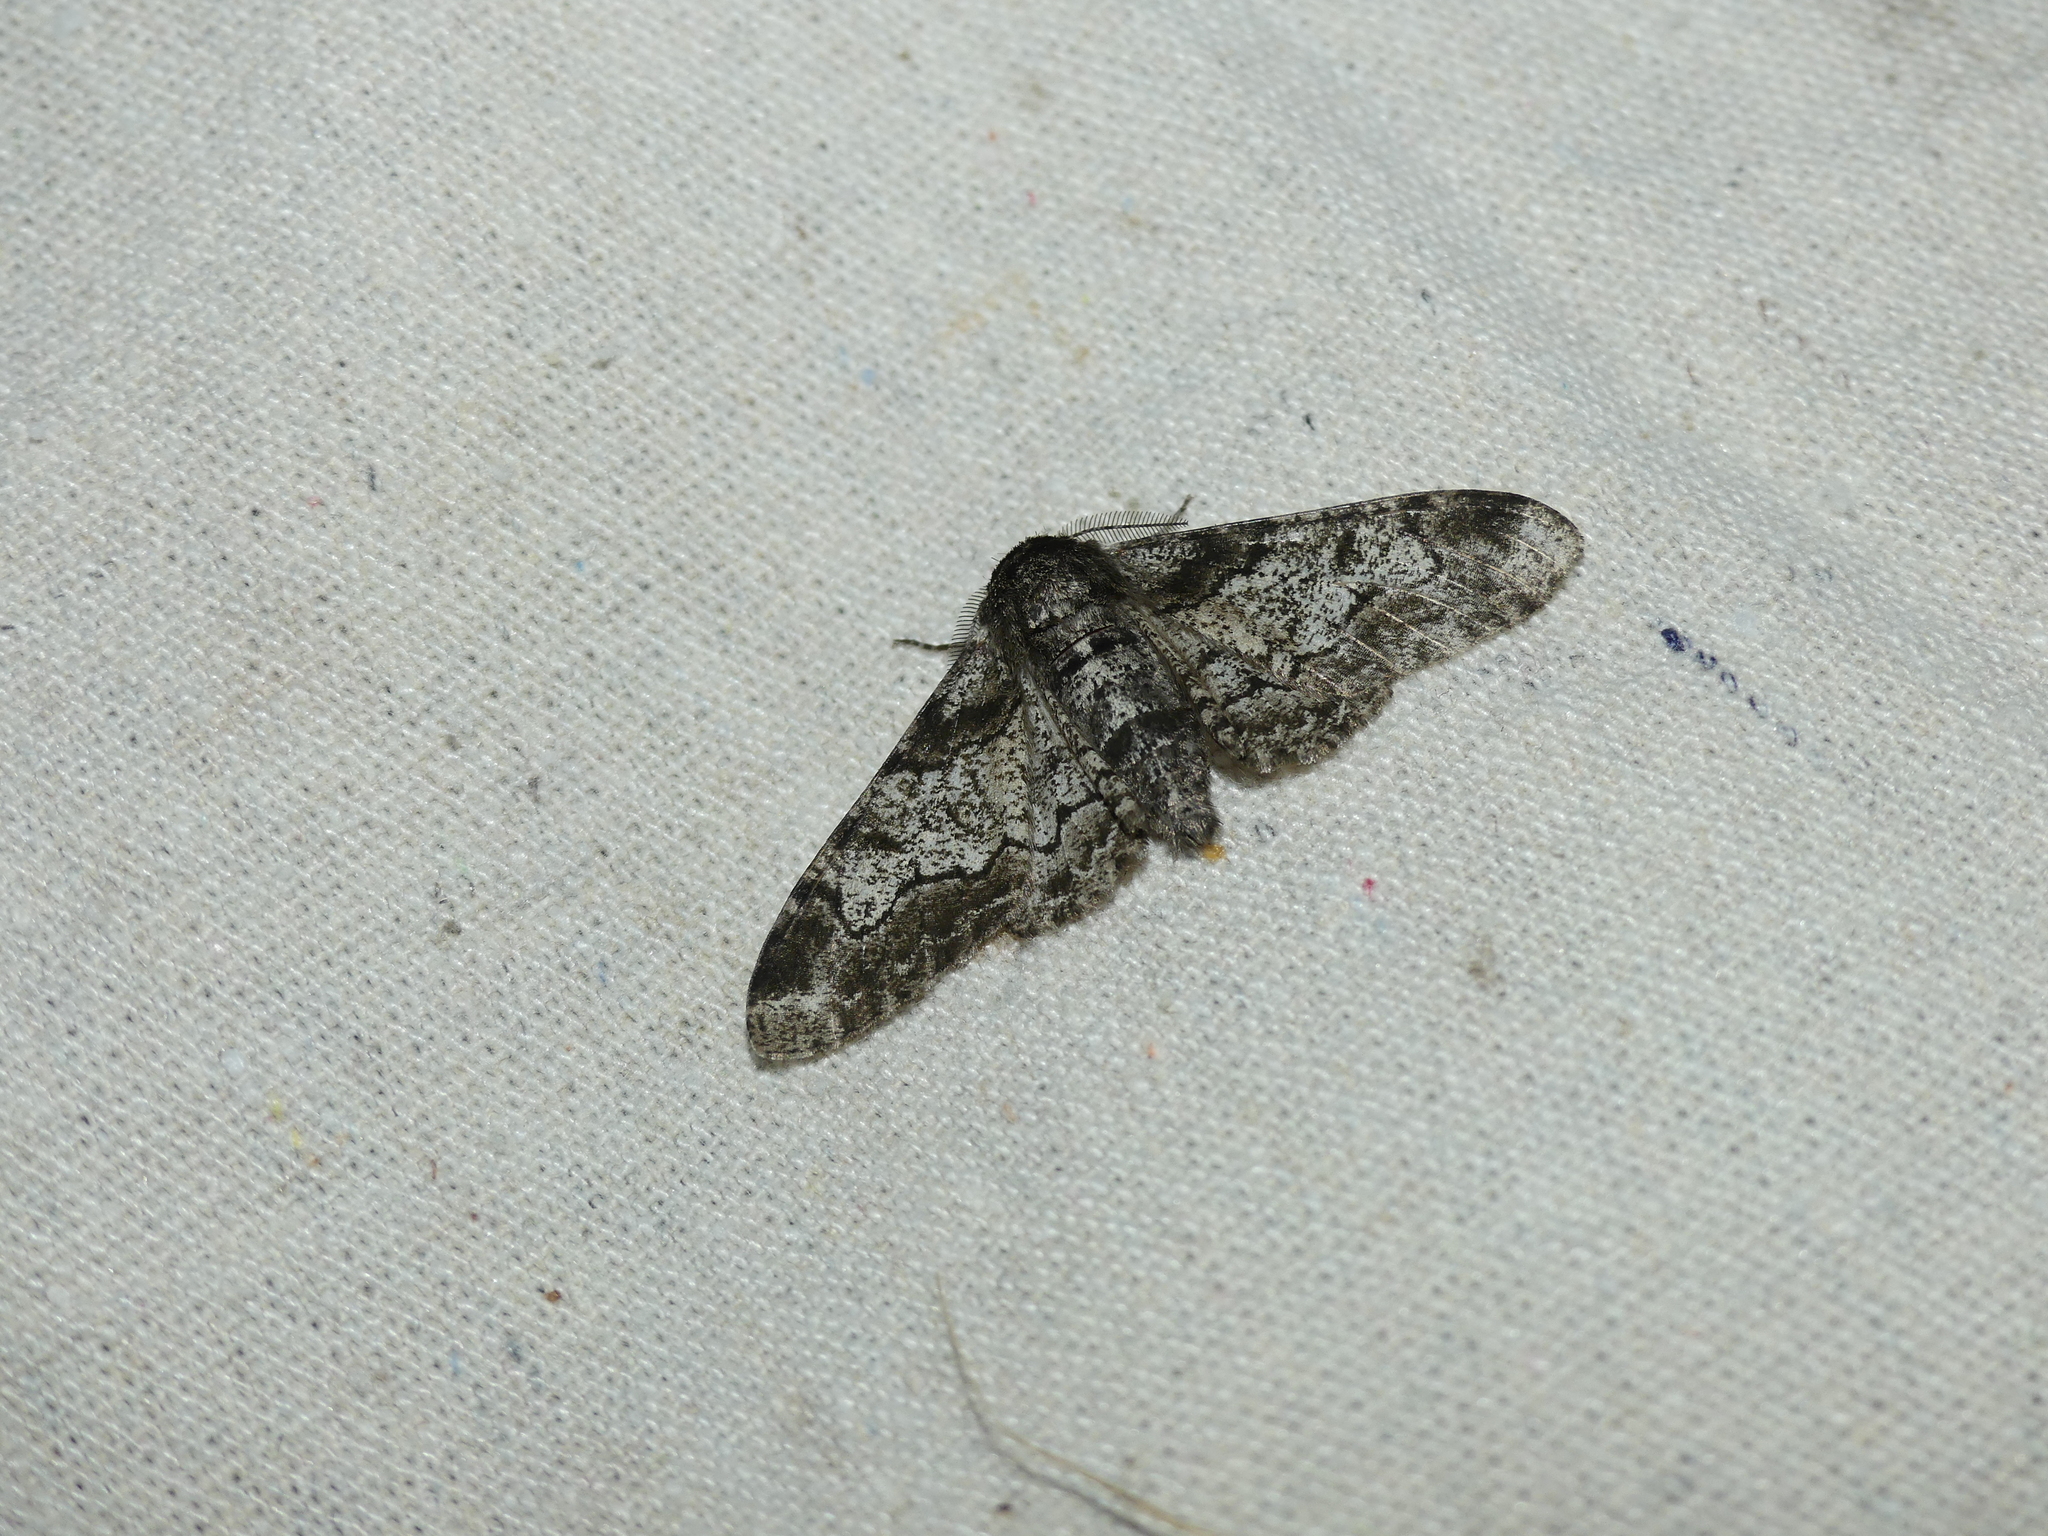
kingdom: Animalia
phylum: Arthropoda
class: Insecta
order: Lepidoptera
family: Geometridae
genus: Biston
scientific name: Biston betularia
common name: Peppered moth
